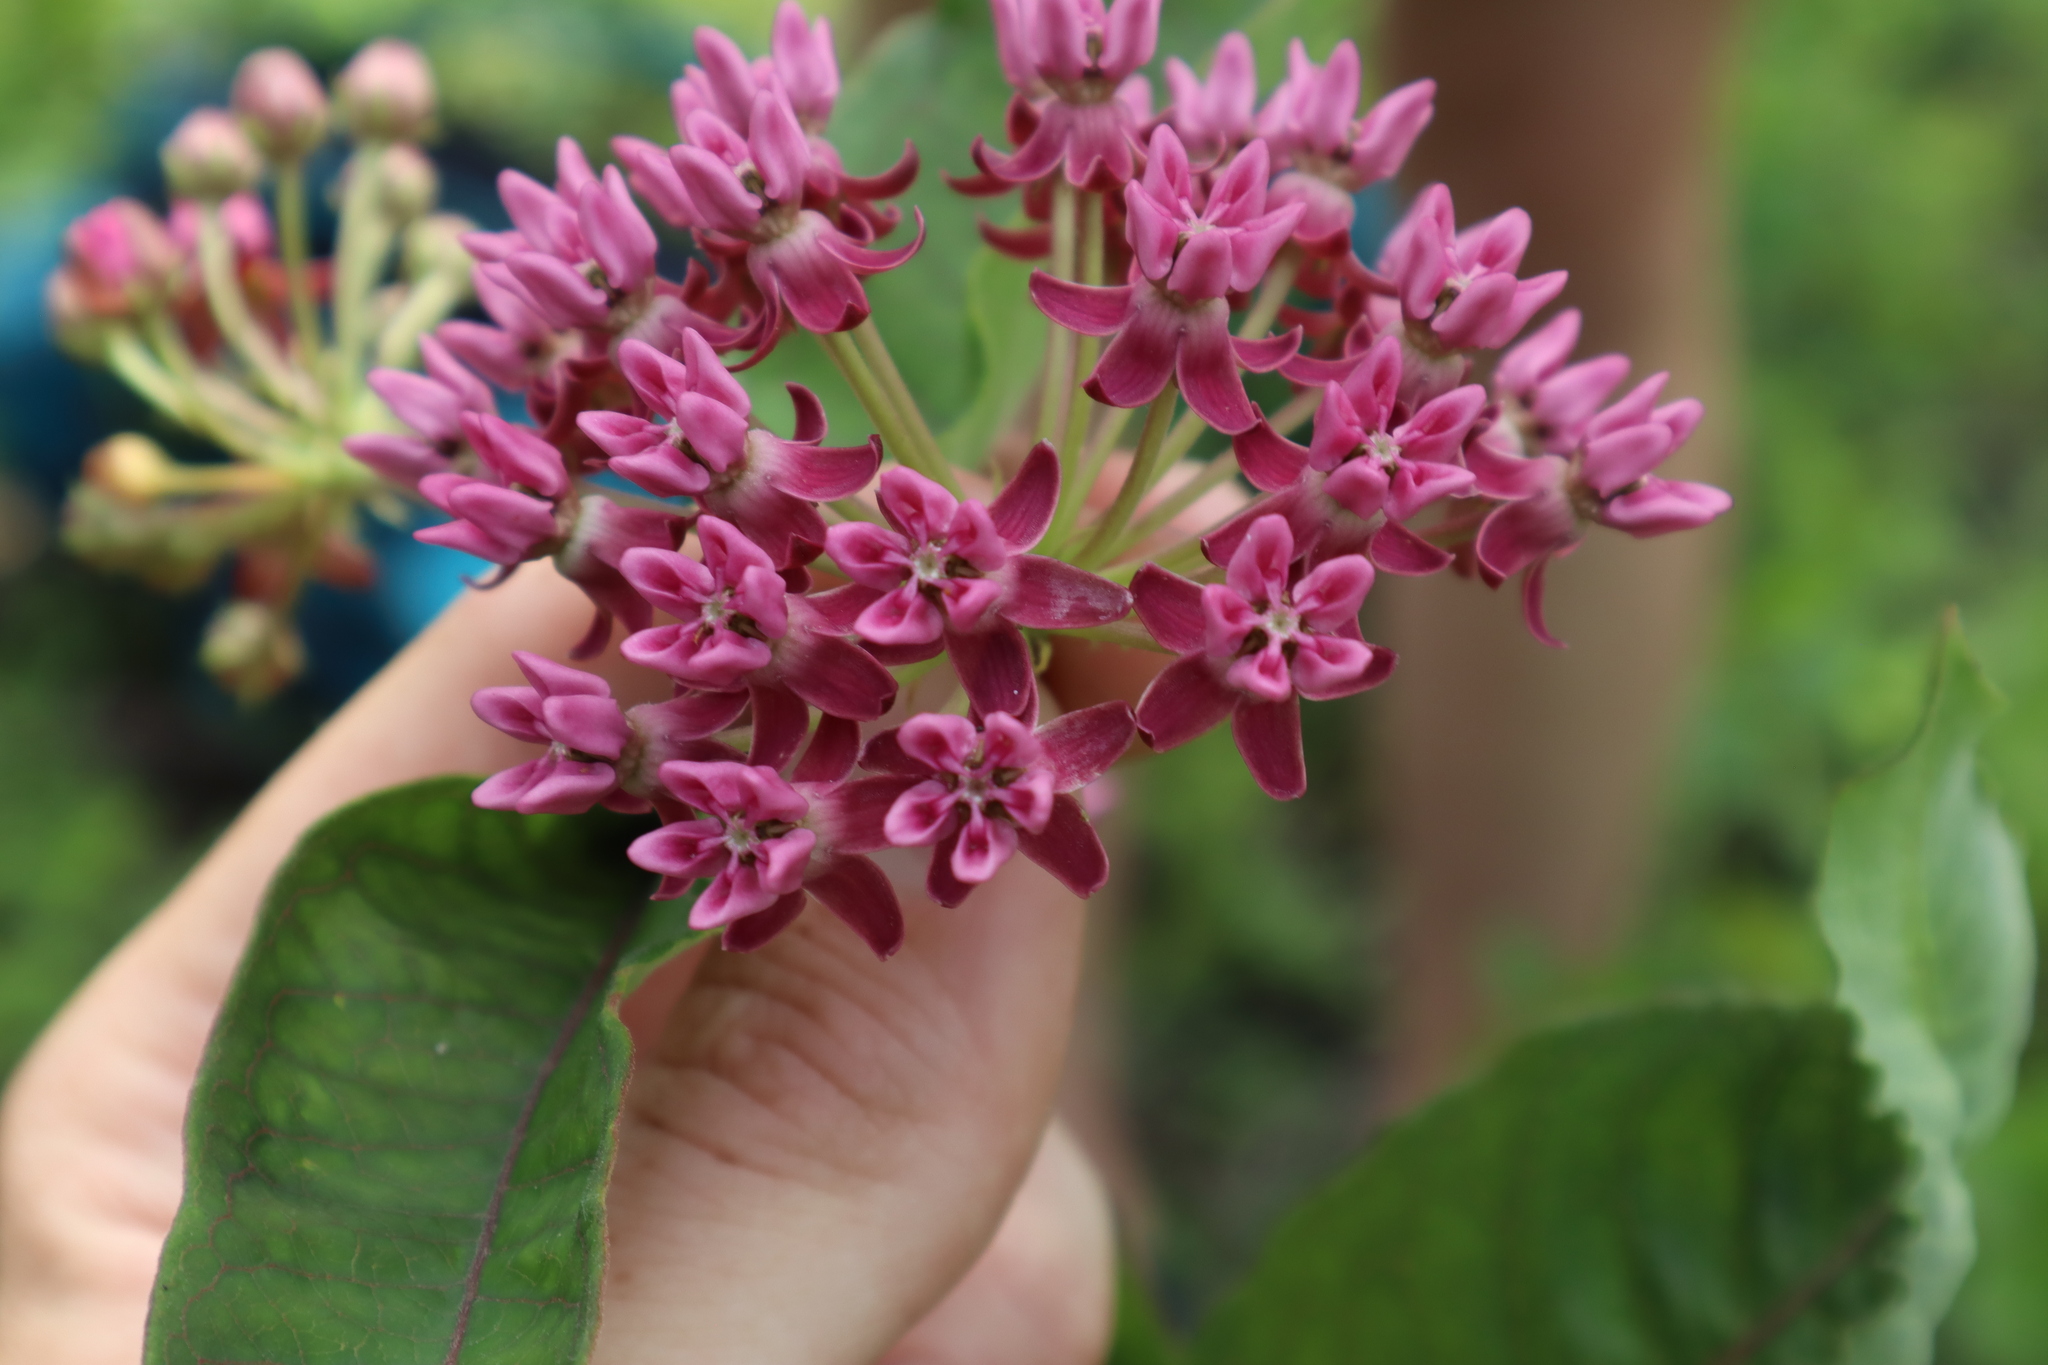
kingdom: Plantae
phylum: Tracheophyta
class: Magnoliopsida
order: Gentianales
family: Apocynaceae
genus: Asclepias
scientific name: Asclepias purpurascens
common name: Purple milkweed
